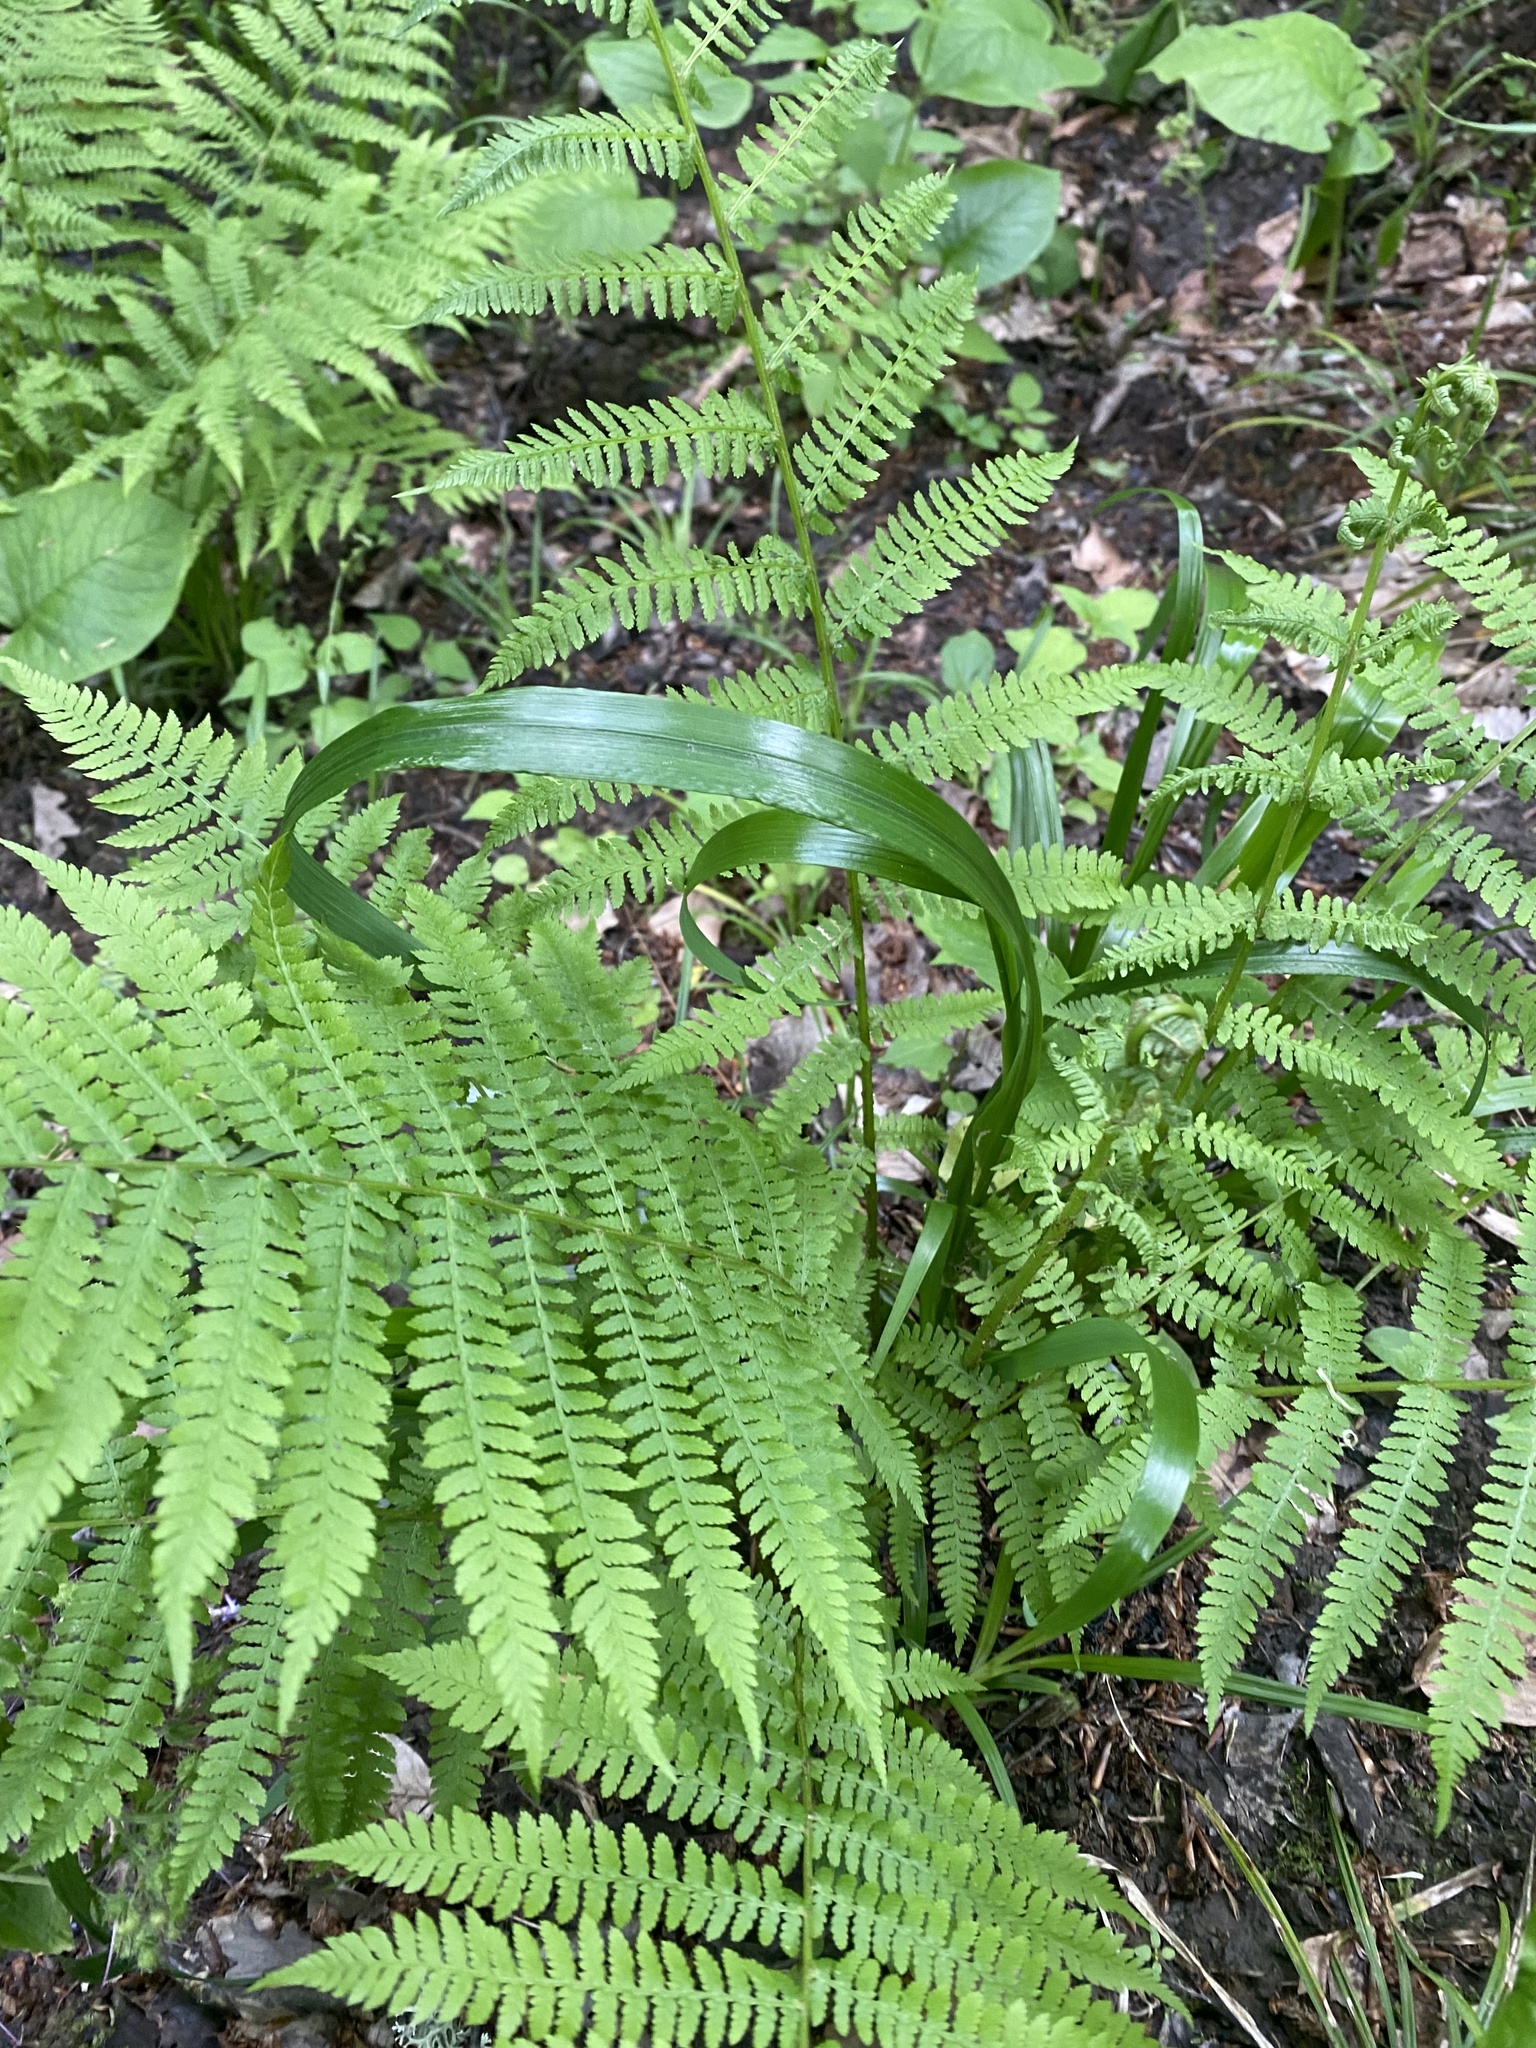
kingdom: Plantae
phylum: Tracheophyta
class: Liliopsida
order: Poales
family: Poaceae
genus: Lolium
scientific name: Lolium giganteum
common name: Giant fescue
